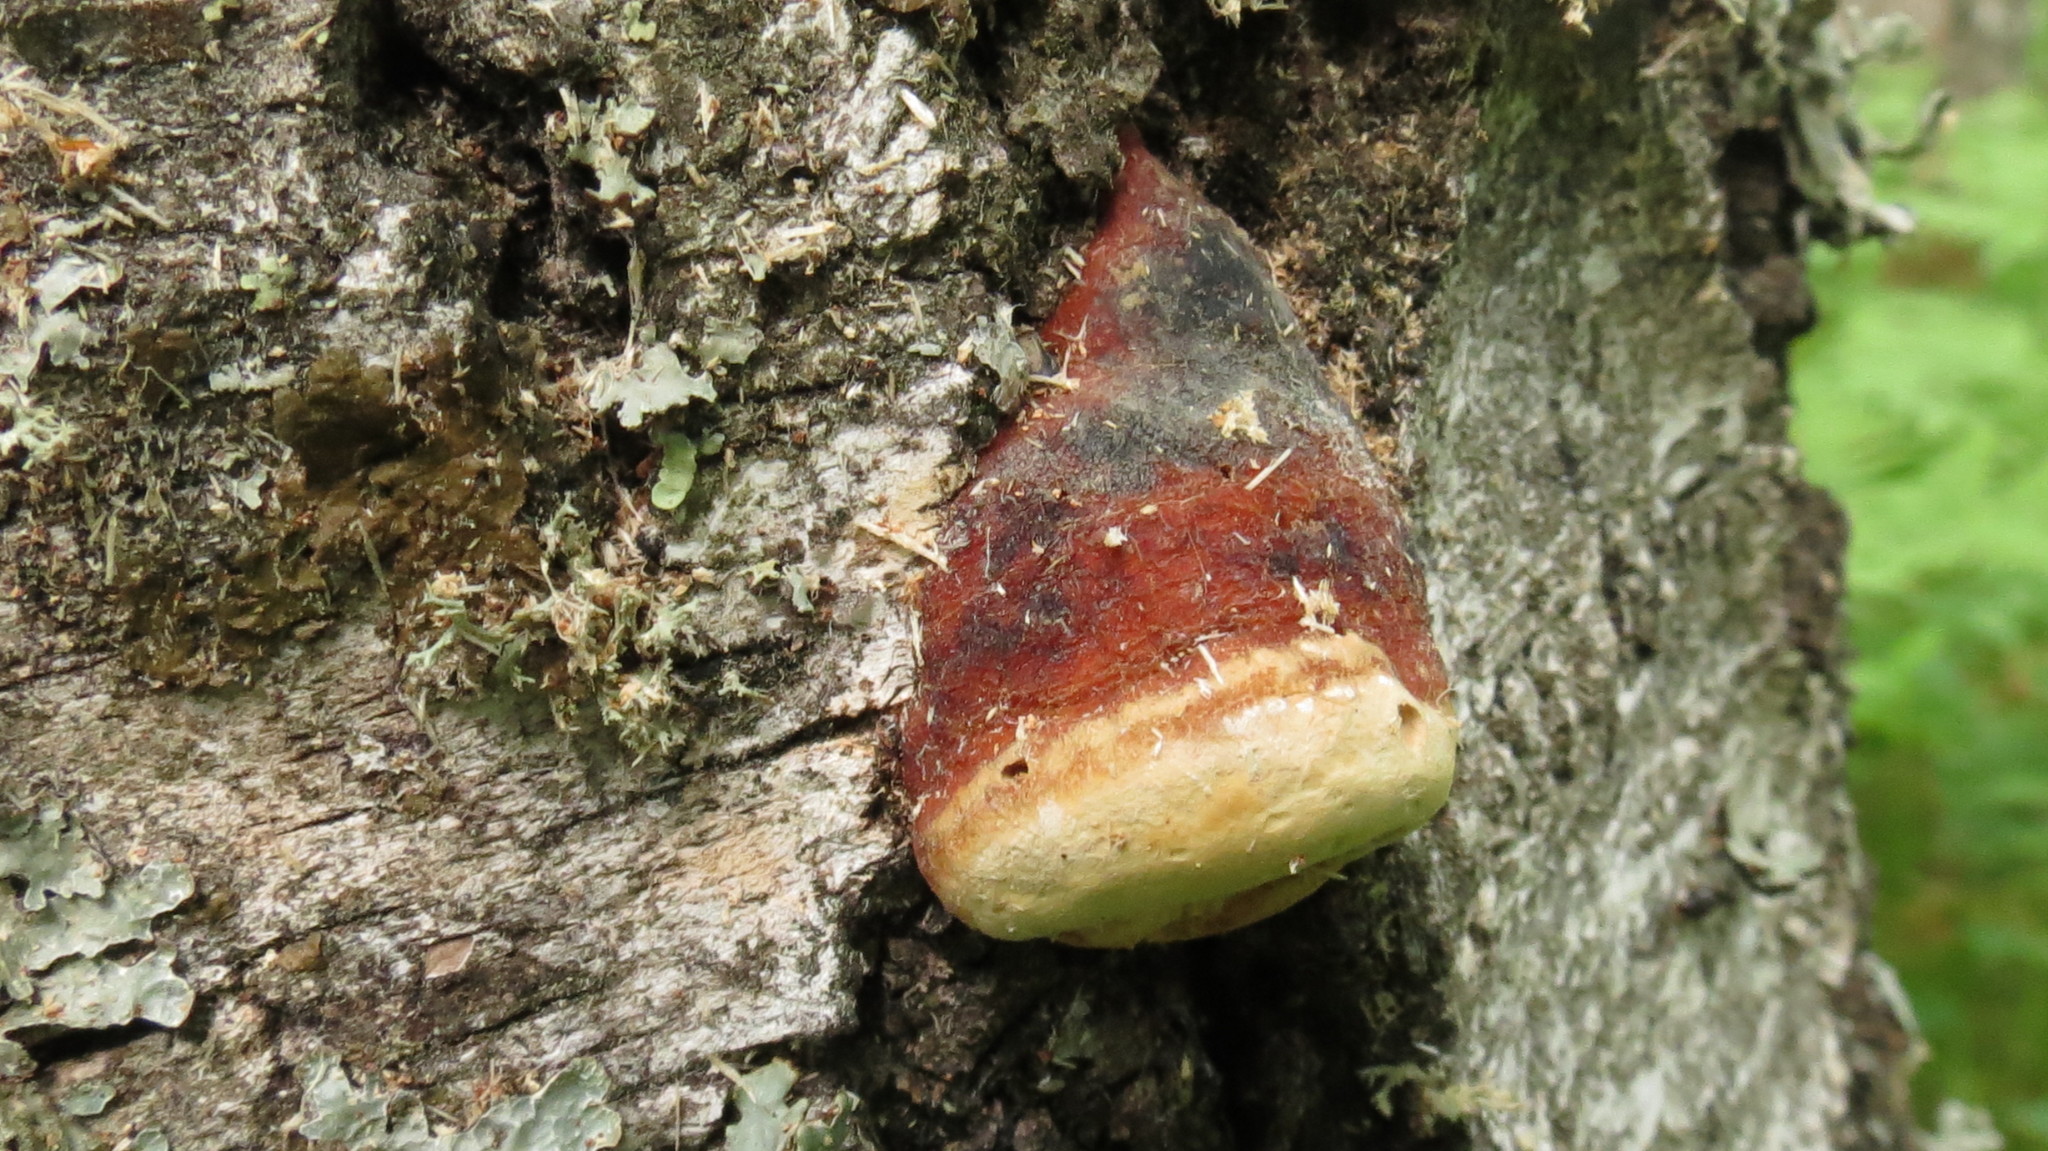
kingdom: Fungi
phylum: Basidiomycota
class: Agaricomycetes
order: Polyporales
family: Fomitopsidaceae
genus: Fomitopsis
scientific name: Fomitopsis pinicola
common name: Red-belted bracket
